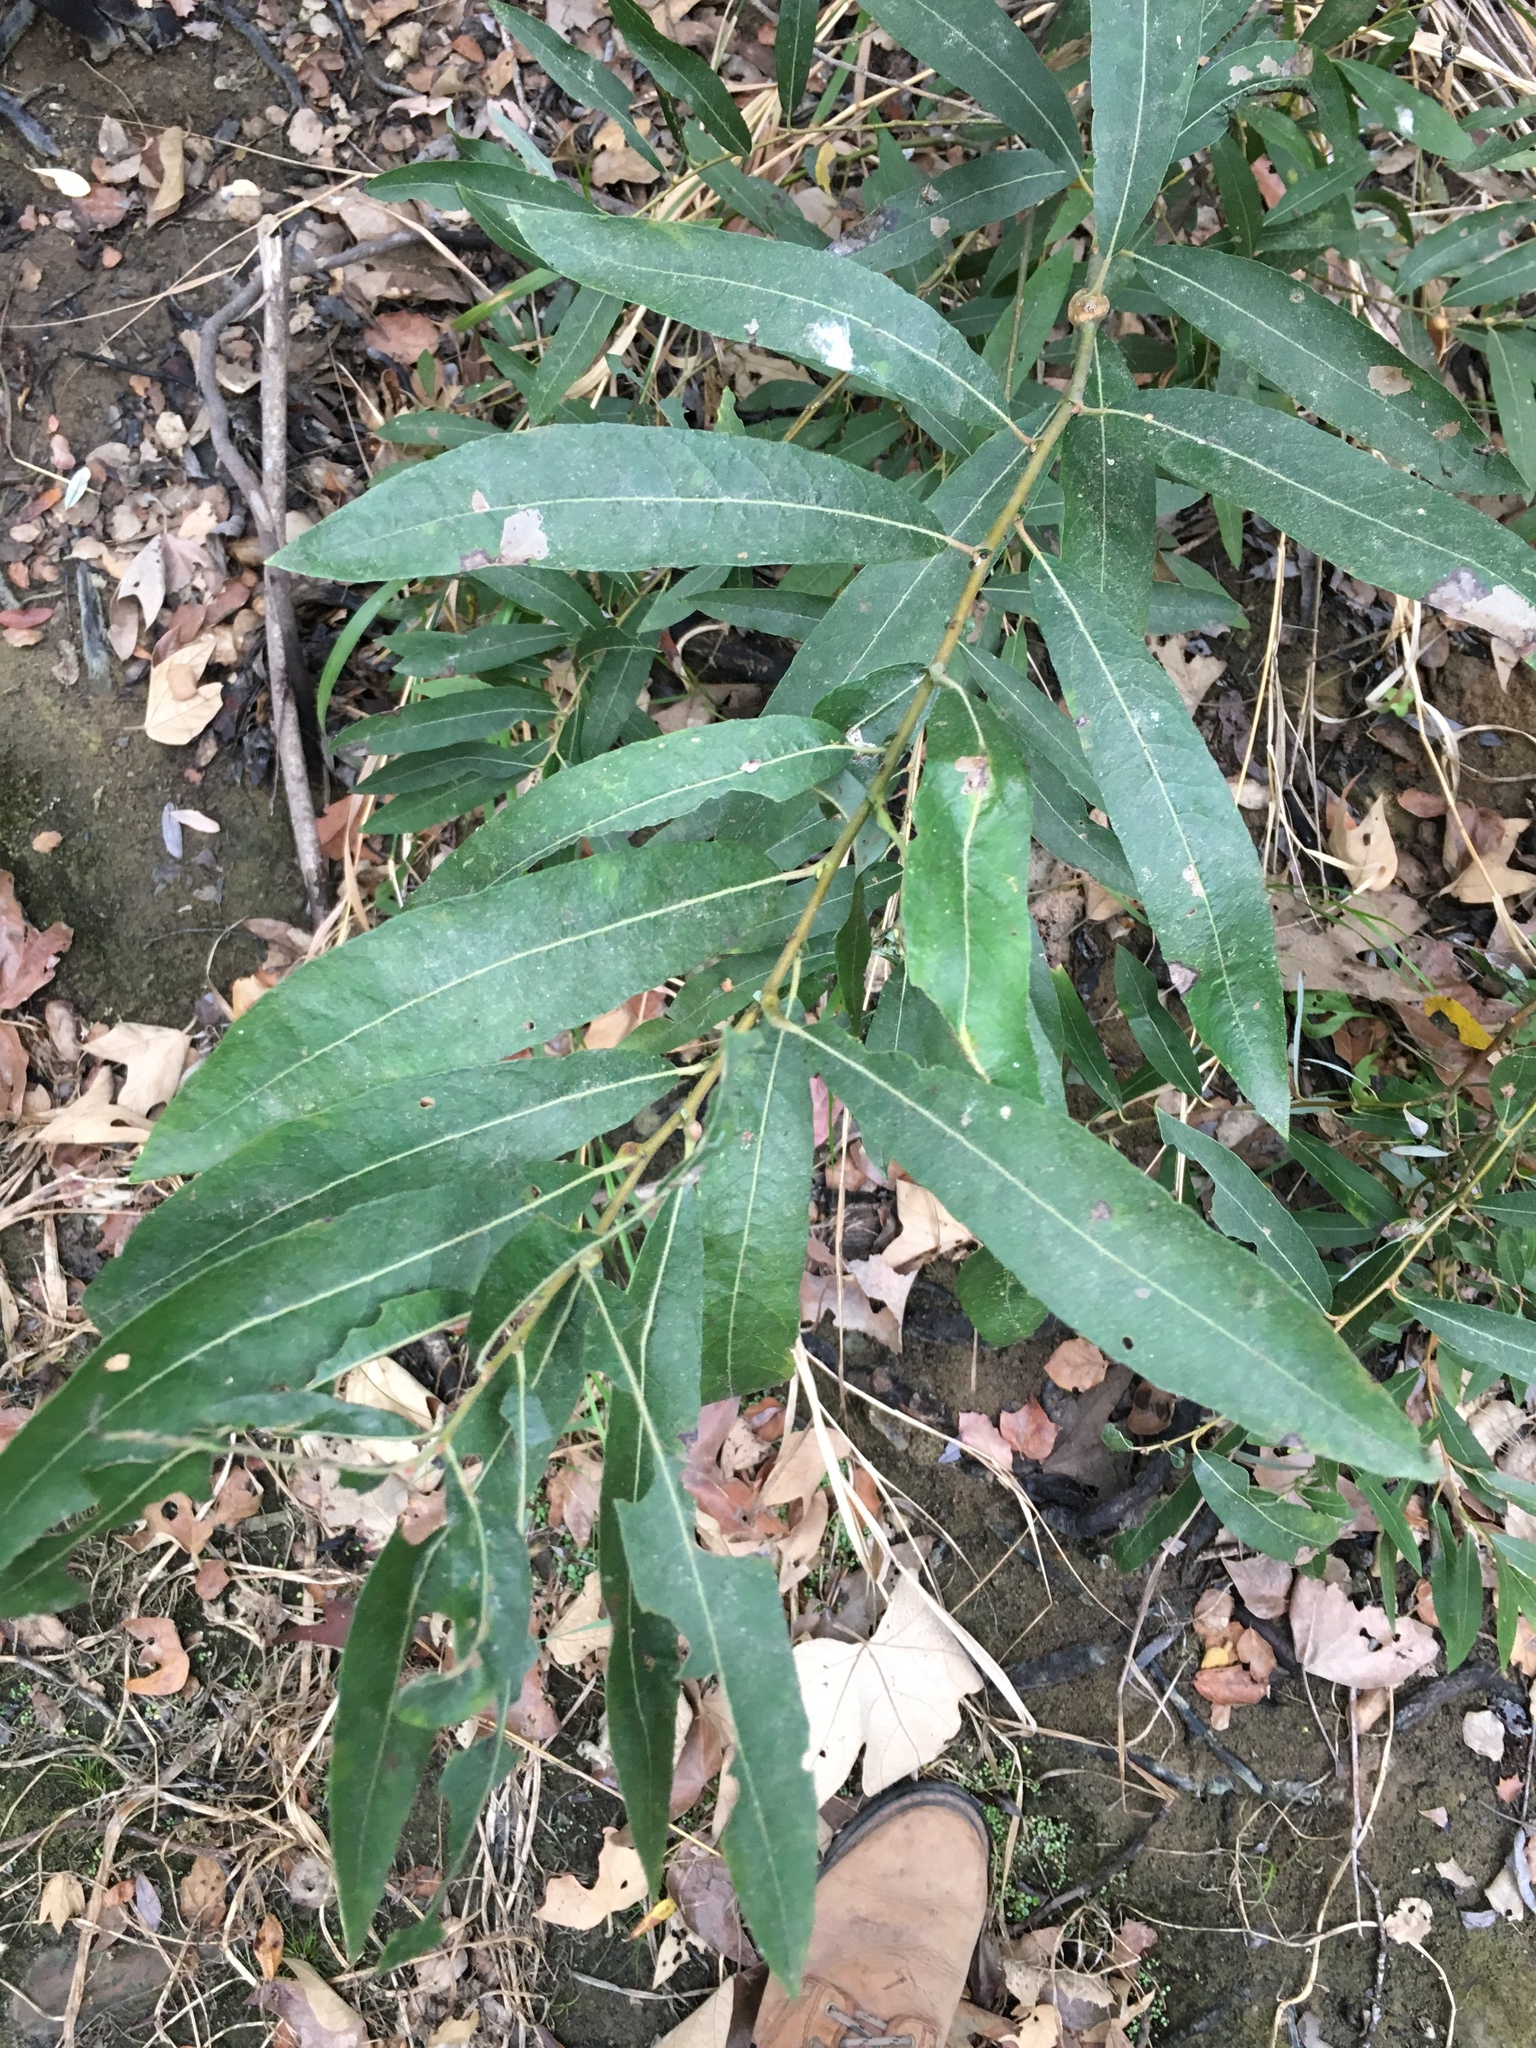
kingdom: Plantae
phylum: Tracheophyta
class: Magnoliopsida
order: Malpighiales
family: Salicaceae
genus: Salix
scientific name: Salix lasiolepis
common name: Arroyo willow
